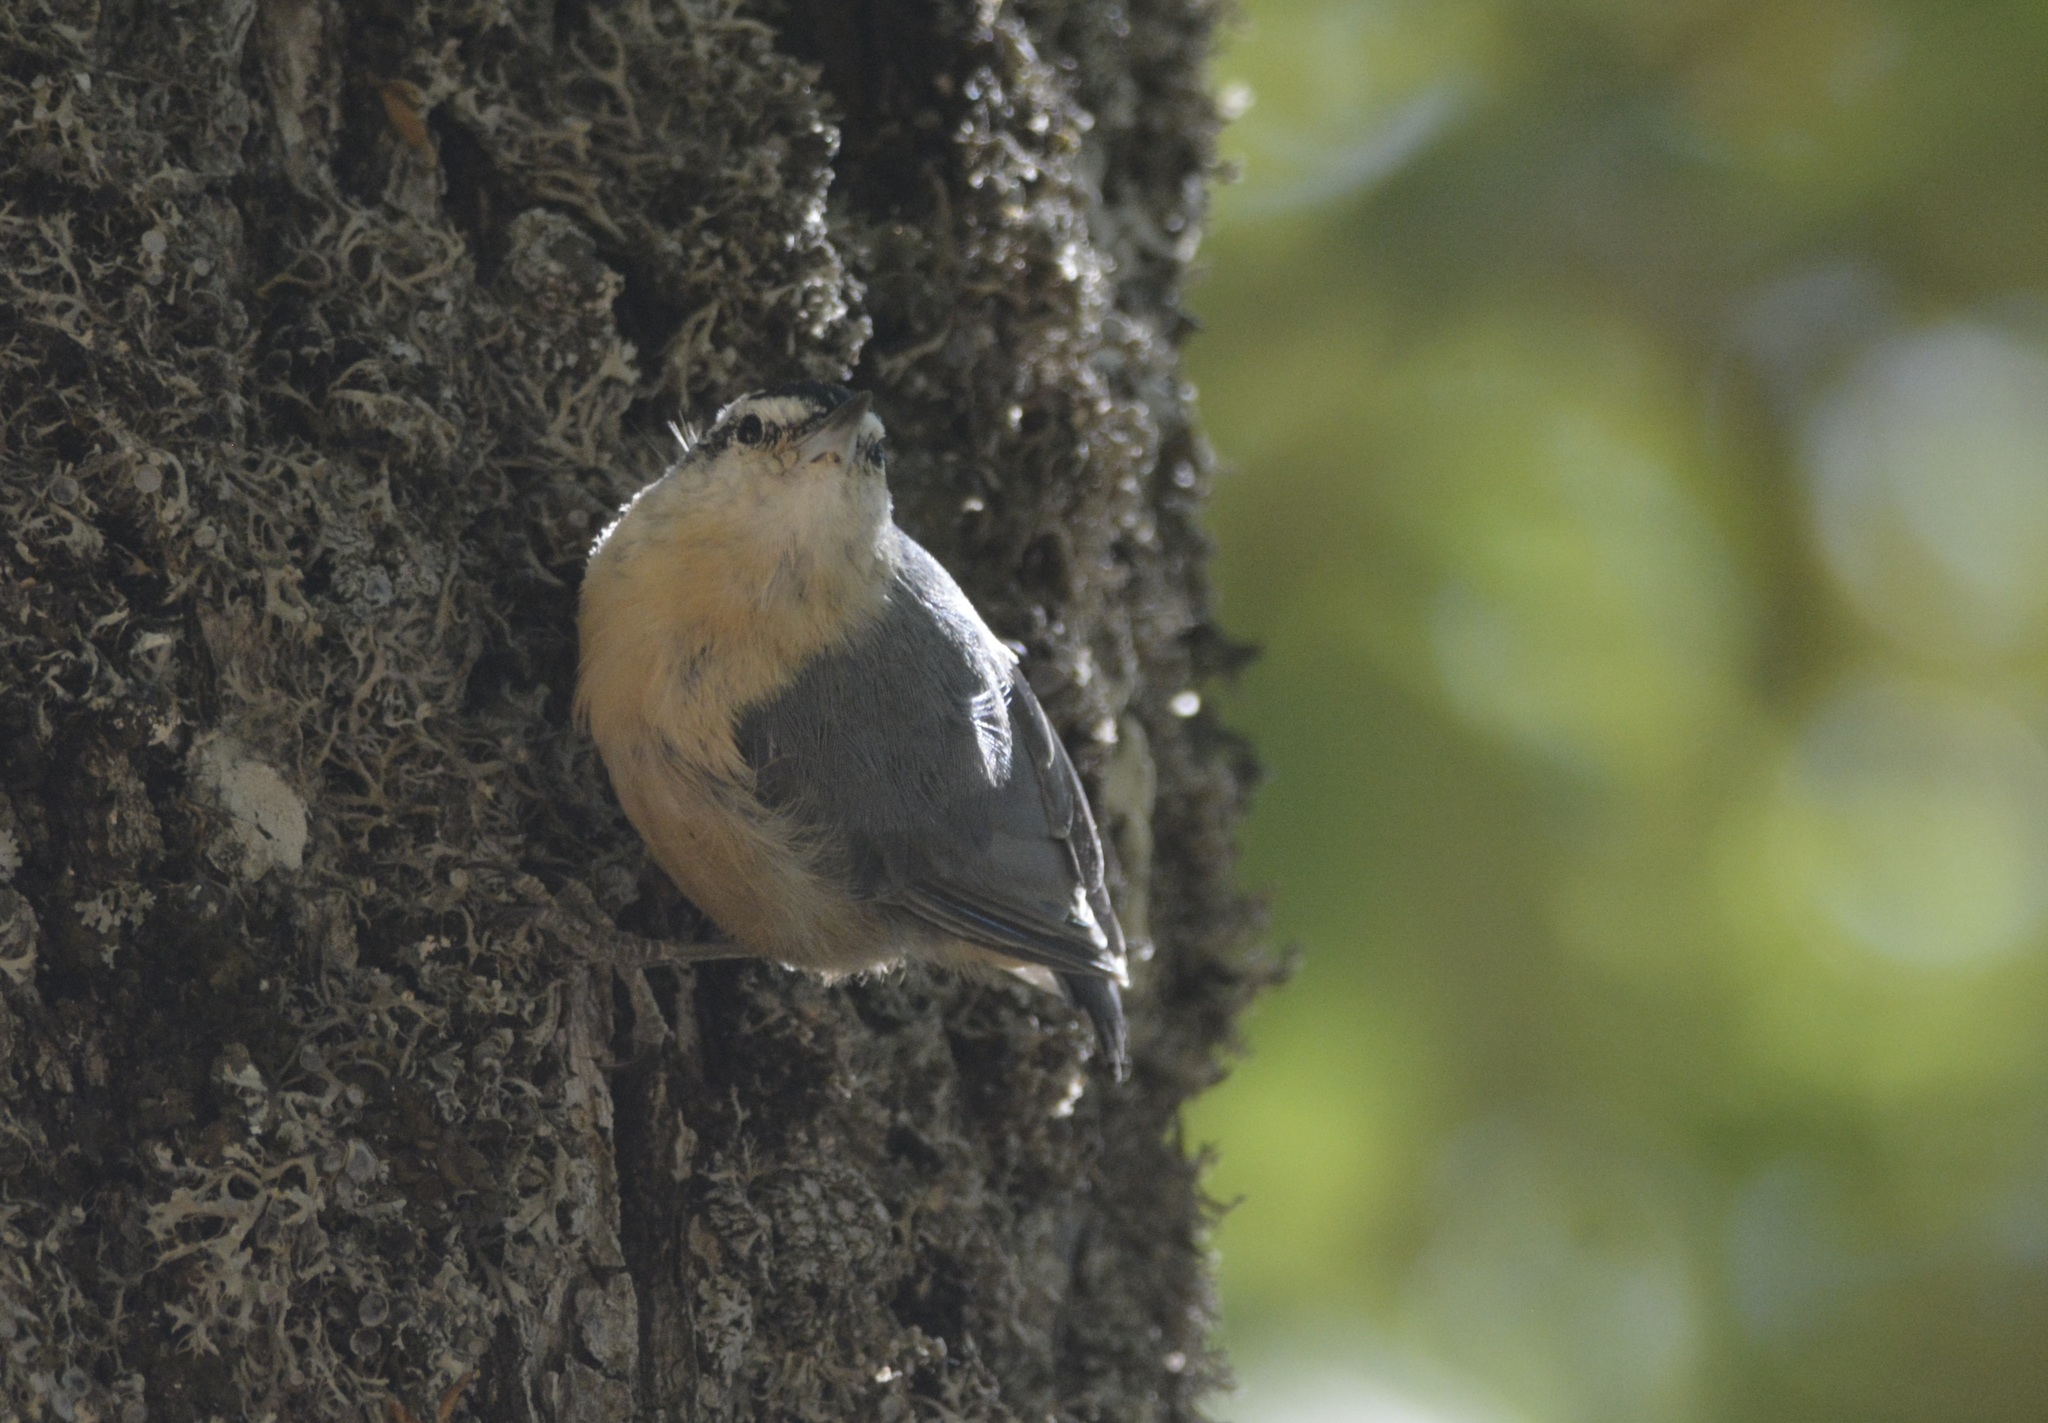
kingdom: Animalia
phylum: Chordata
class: Aves
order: Passeriformes
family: Sittidae
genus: Sitta
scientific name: Sitta ledanti
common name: Algerian nuthatch
